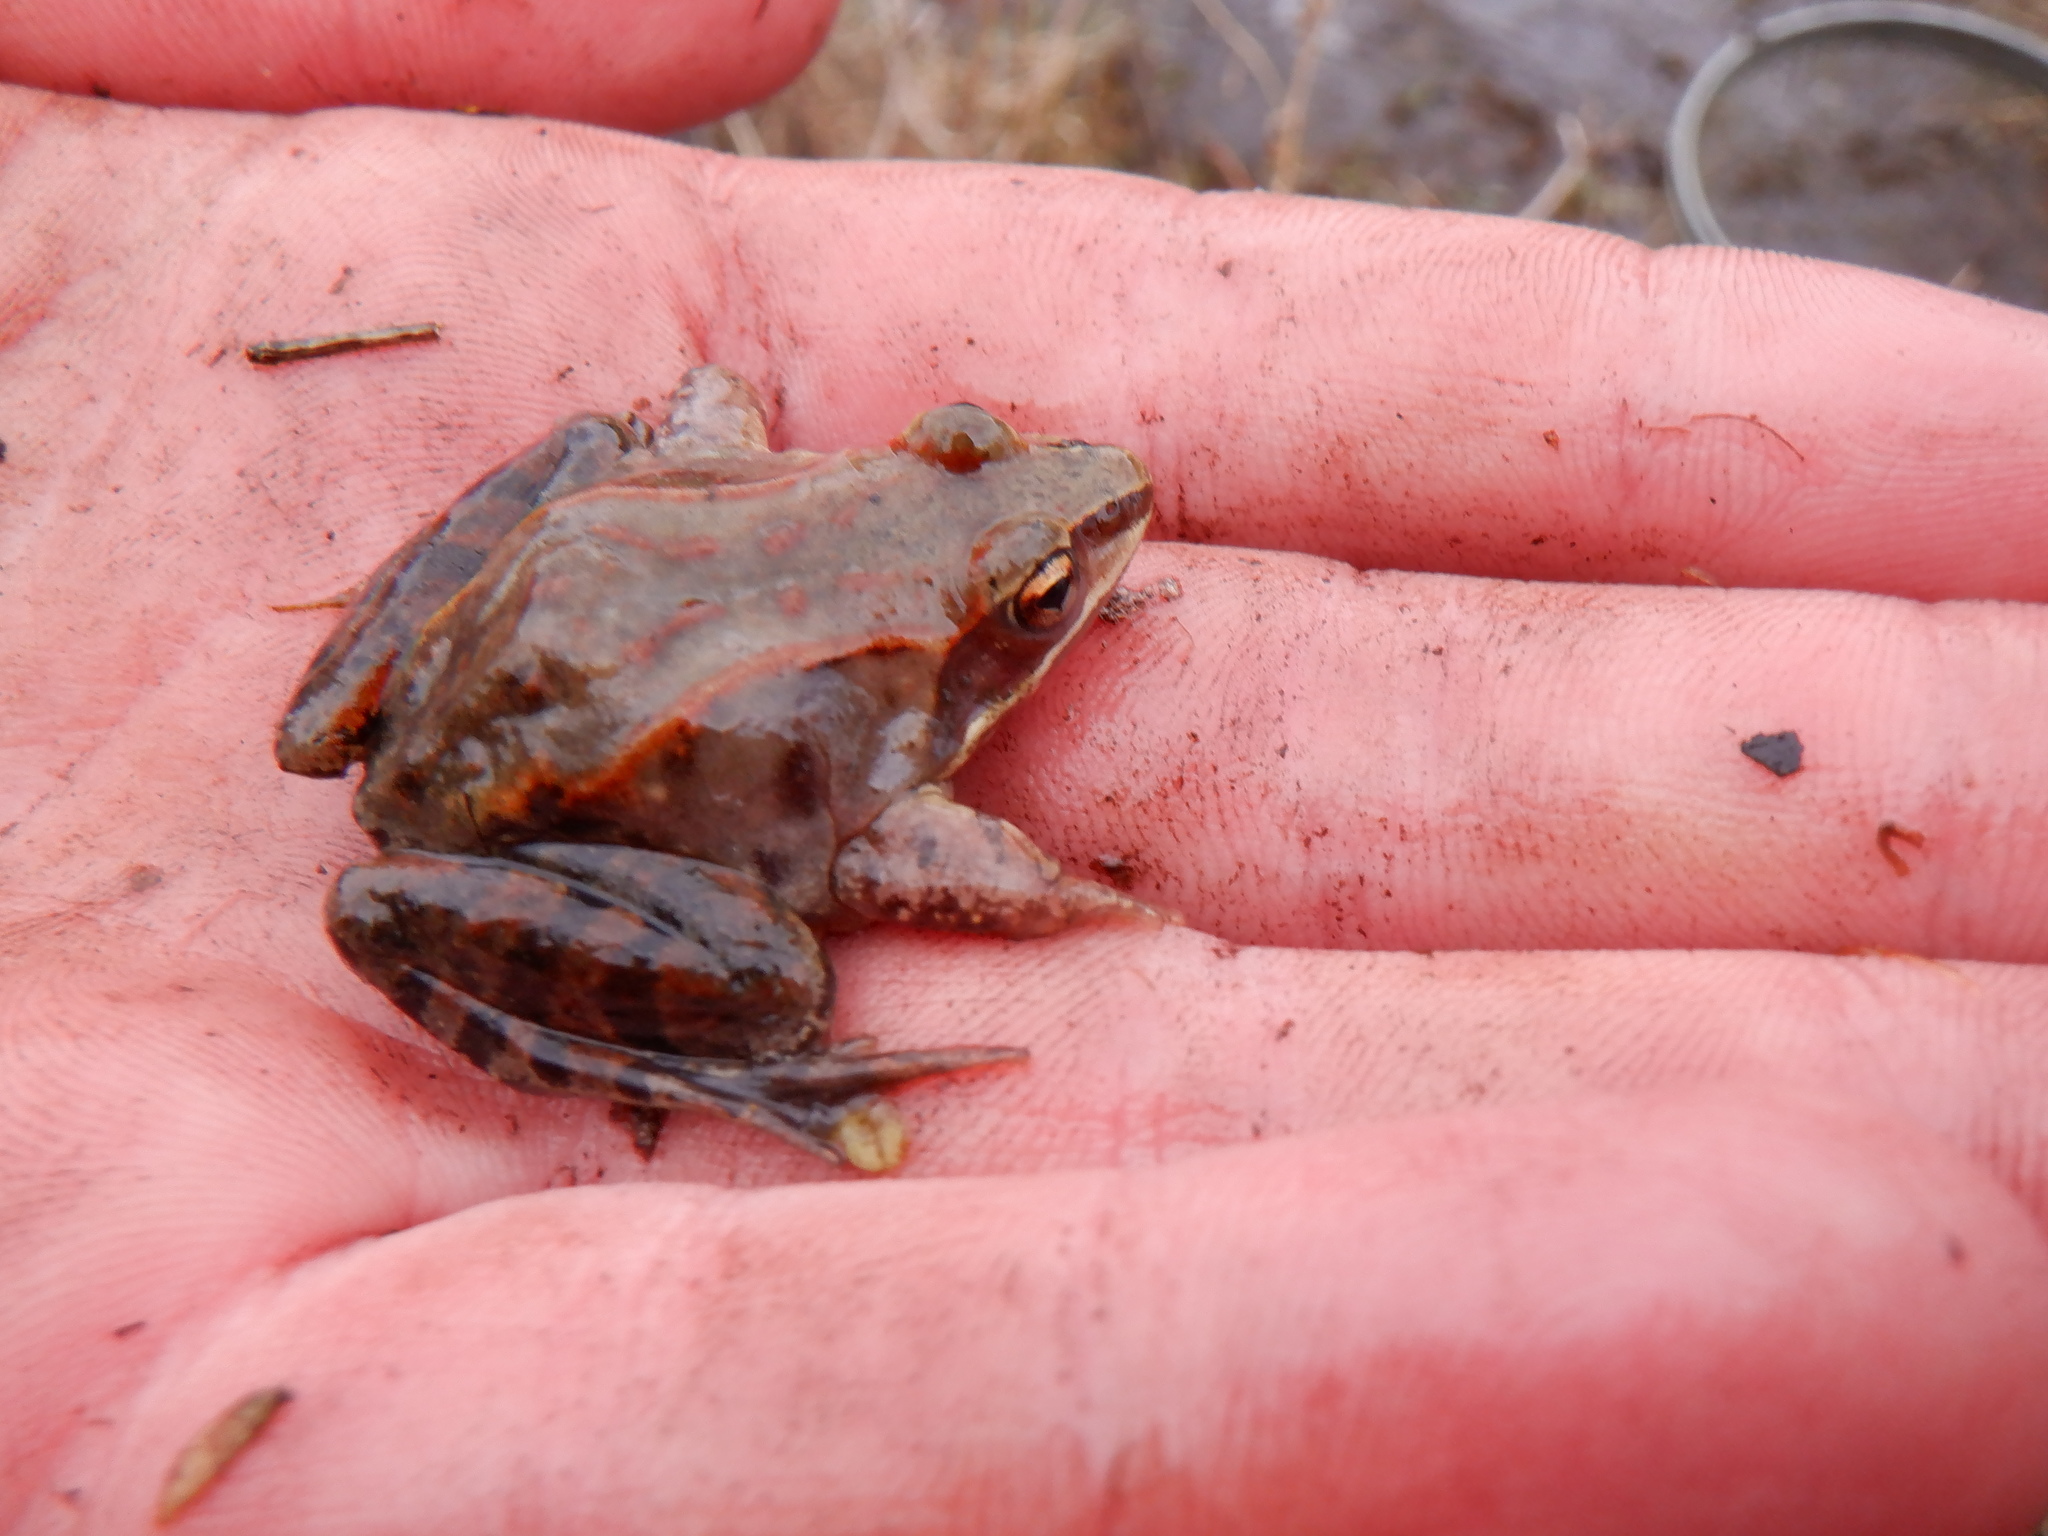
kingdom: Animalia
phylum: Chordata
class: Amphibia
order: Anura
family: Ranidae
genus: Lithobates
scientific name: Lithobates sylvaticus
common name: Wood frog
